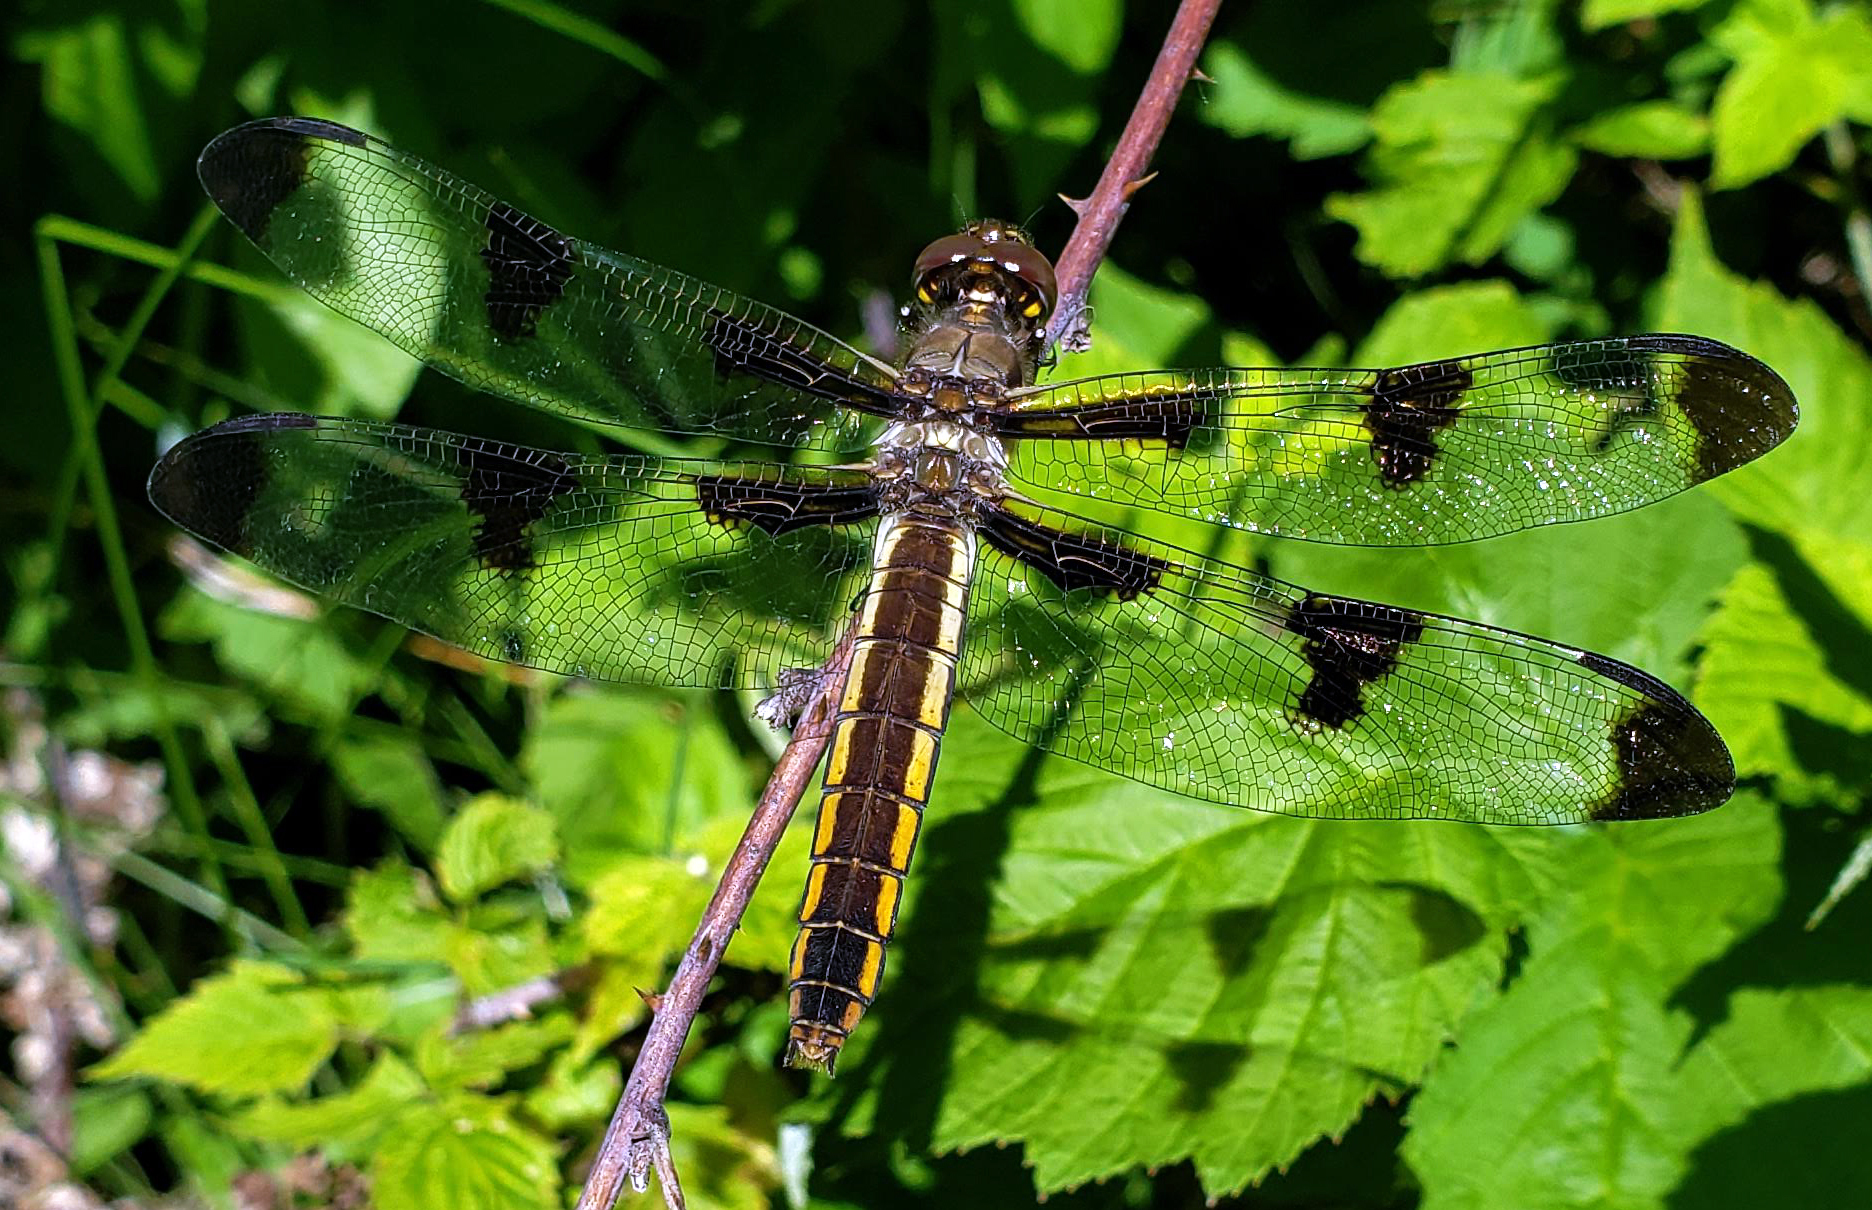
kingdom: Animalia
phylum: Arthropoda
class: Insecta
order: Odonata
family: Libellulidae
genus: Libellula
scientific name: Libellula pulchella
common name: Twelve-spotted skimmer
